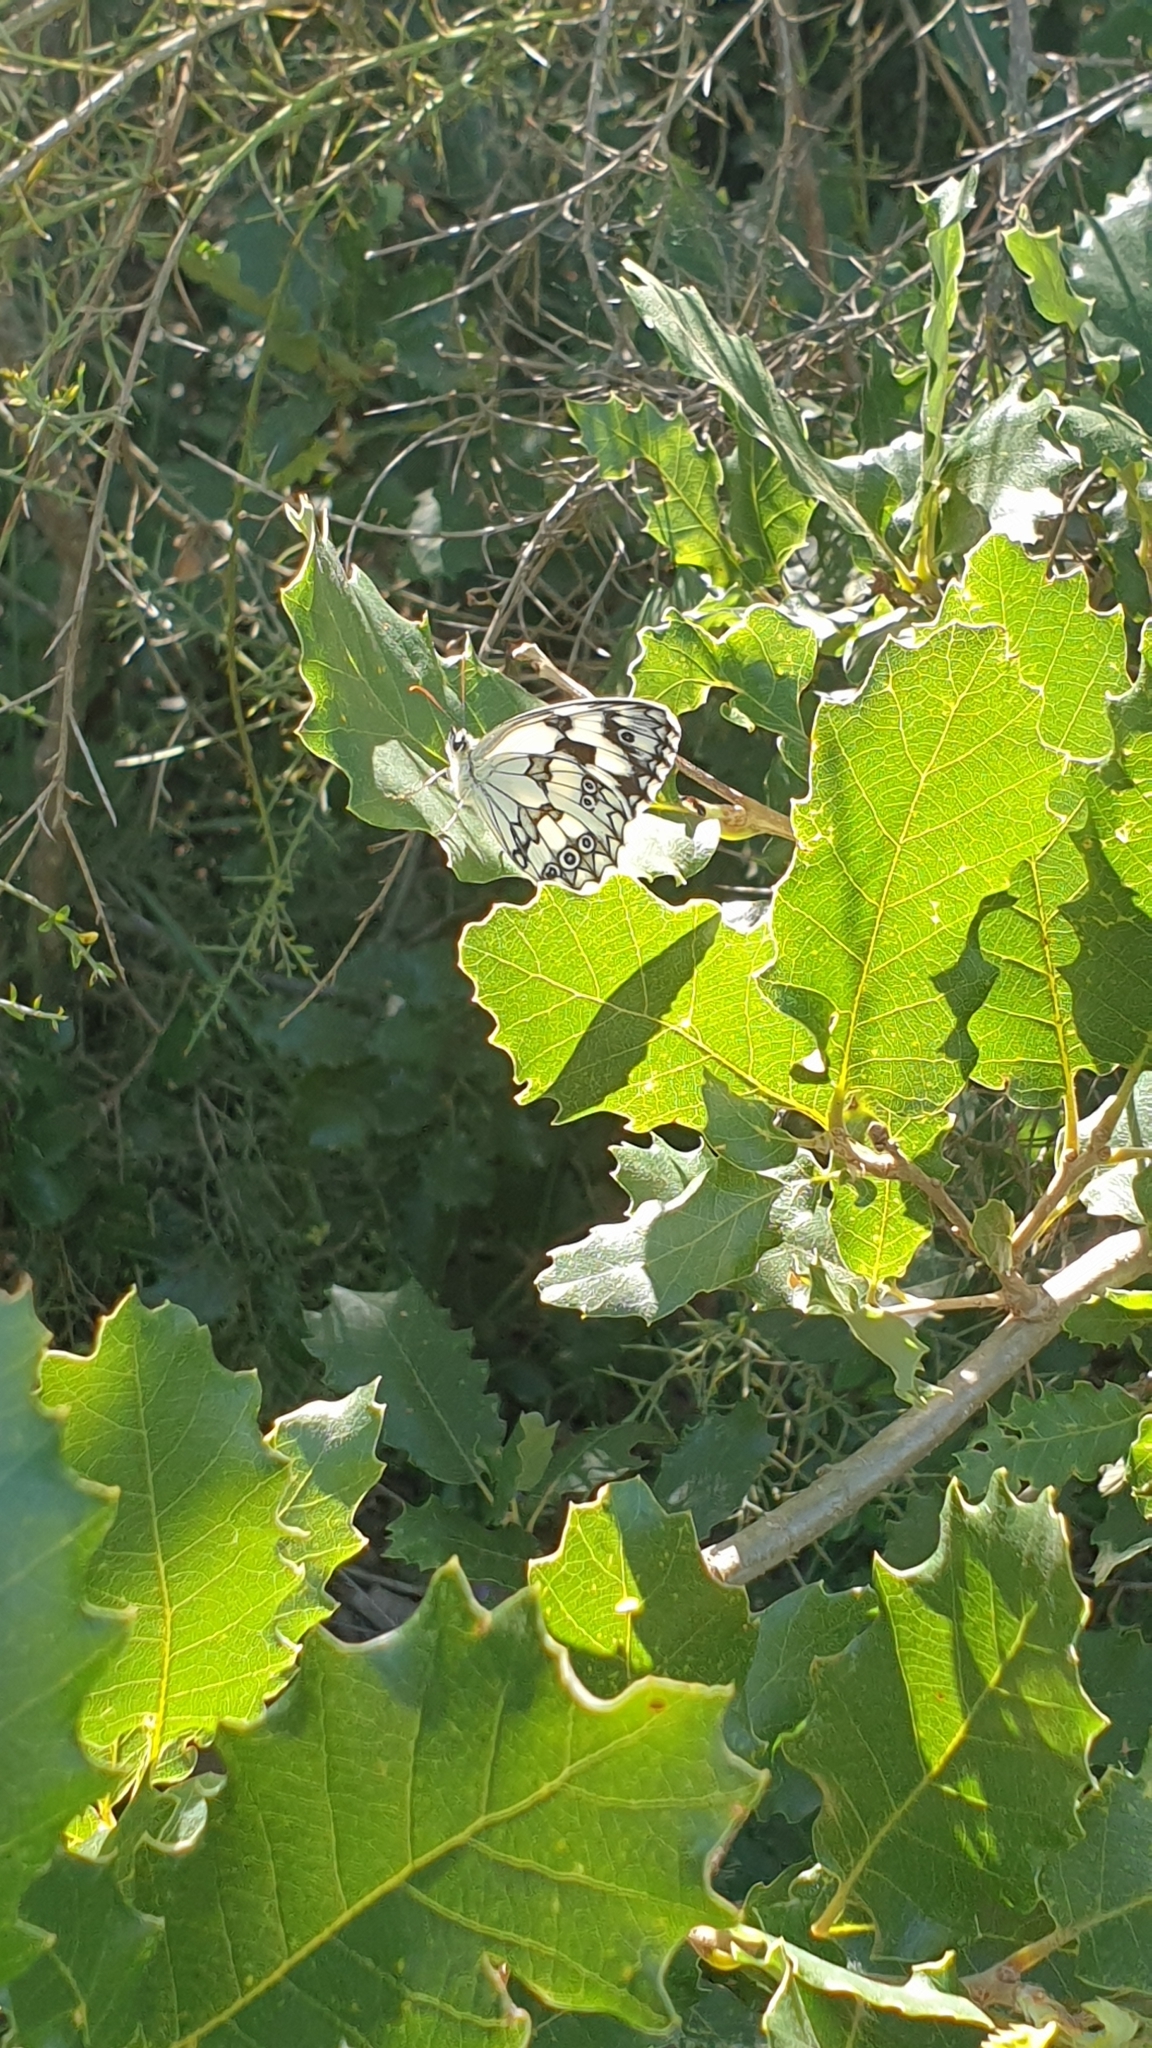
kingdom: Animalia
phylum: Arthropoda
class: Insecta
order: Lepidoptera
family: Nymphalidae
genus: Melanargia
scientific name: Melanargia lachesis
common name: Iberian marbled white
